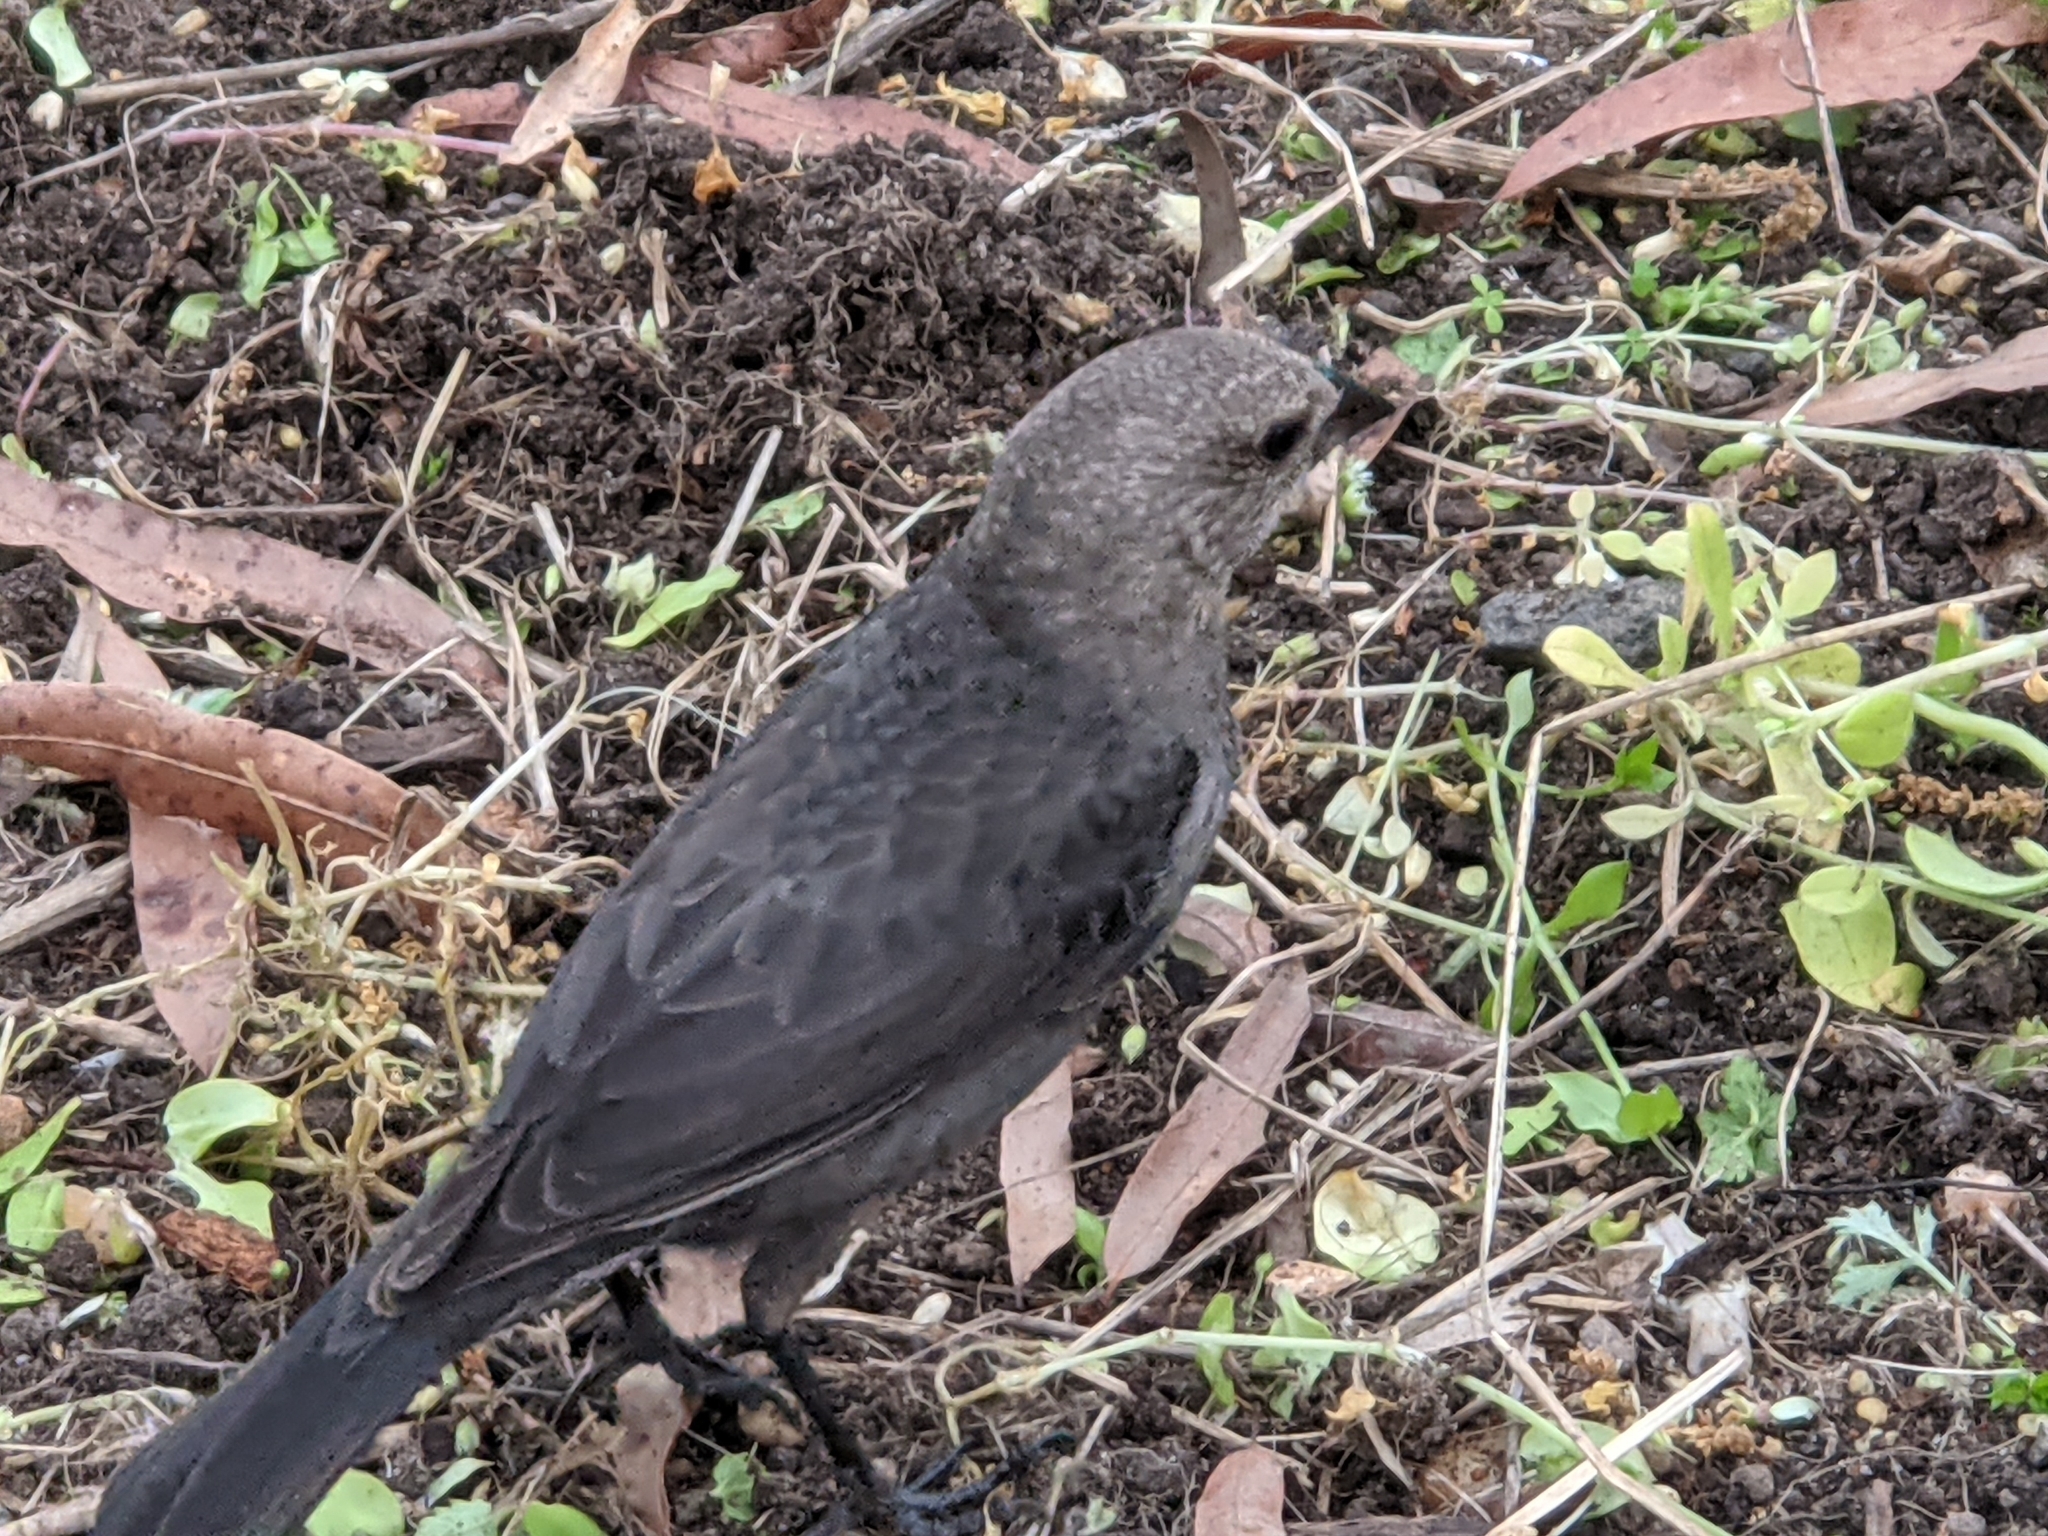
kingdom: Animalia
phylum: Chordata
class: Aves
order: Passeriformes
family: Icteridae
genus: Molothrus
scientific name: Molothrus ater
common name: Brown-headed cowbird
